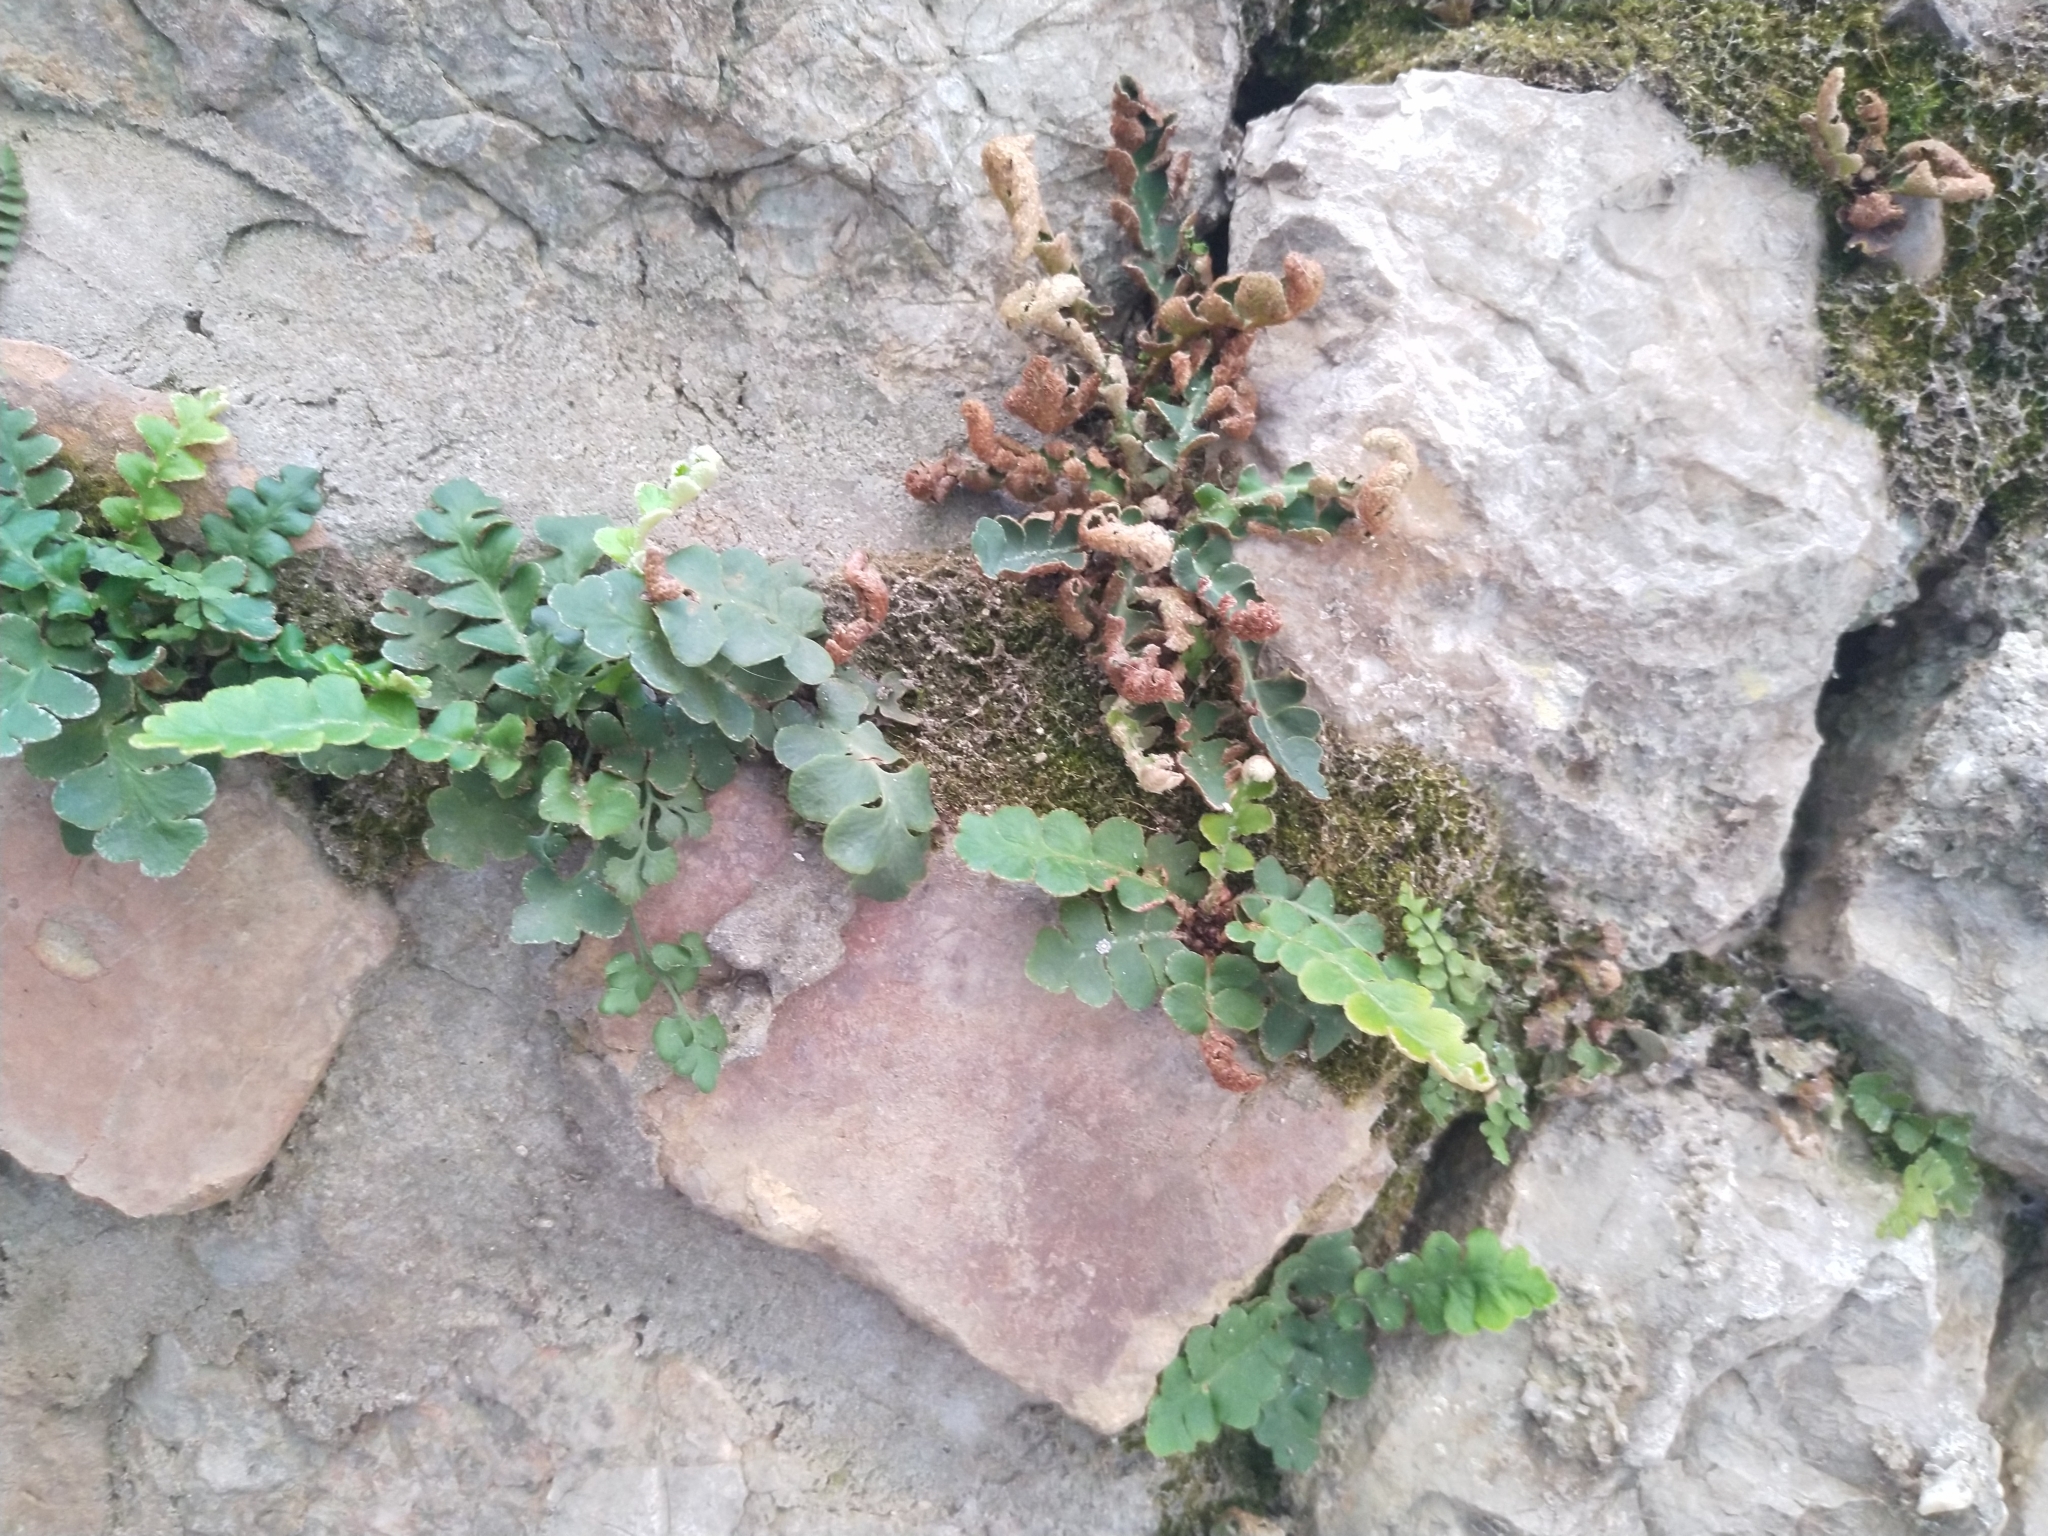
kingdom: Plantae
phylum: Tracheophyta
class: Polypodiopsida
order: Polypodiales
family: Aspleniaceae
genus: Asplenium
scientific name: Asplenium ceterach
